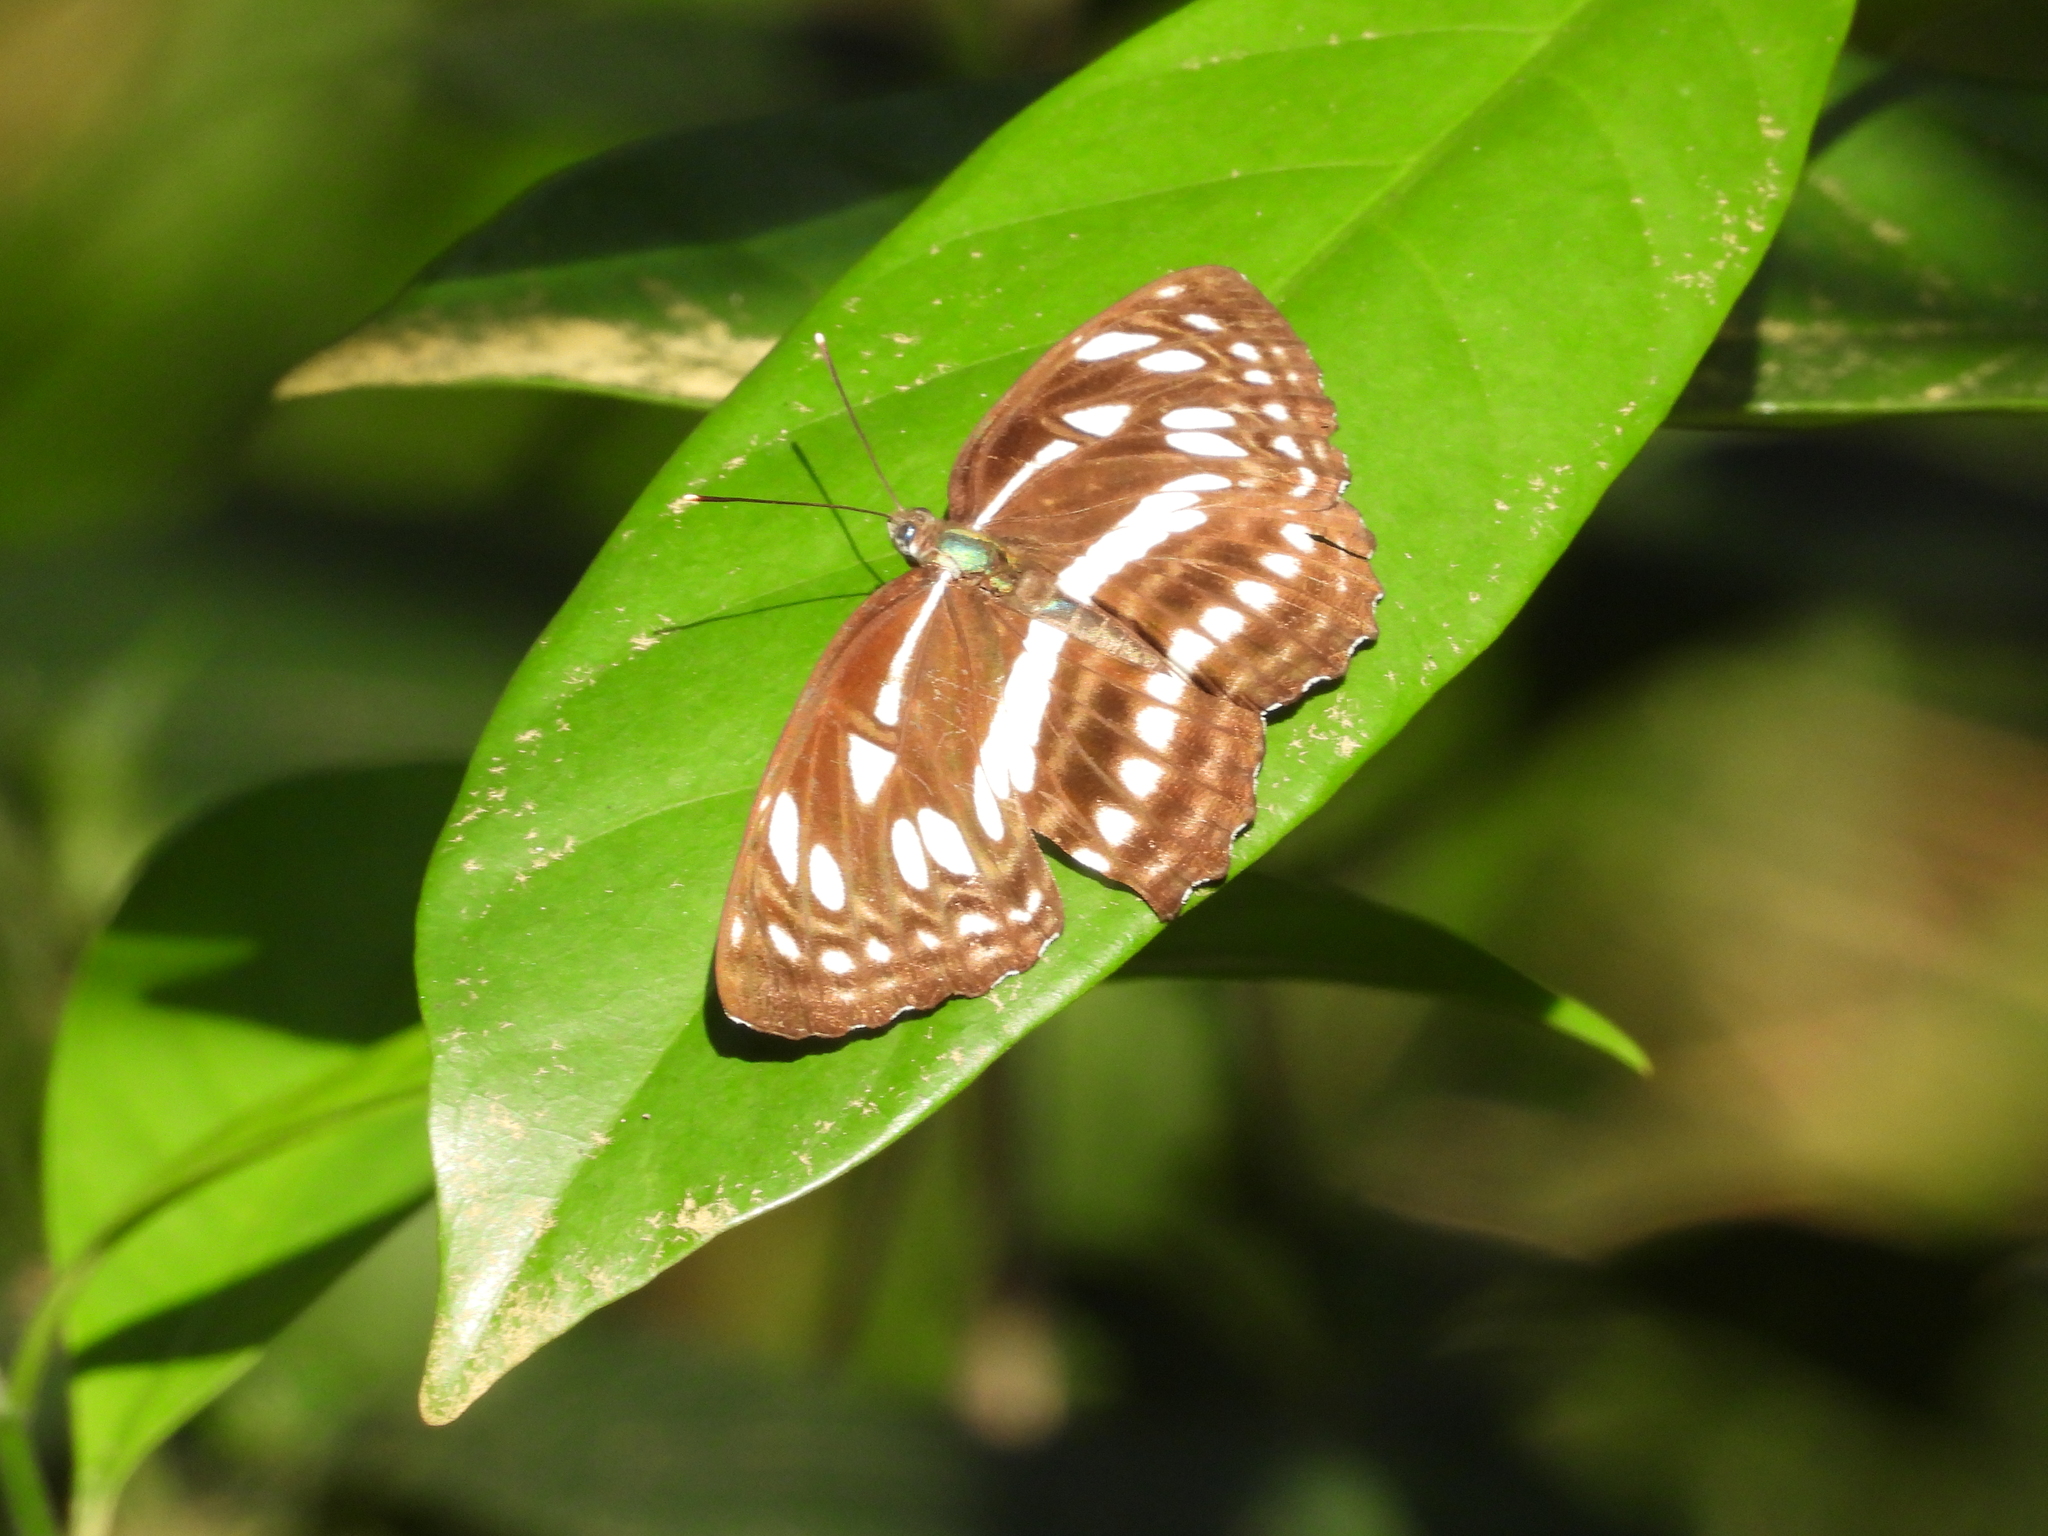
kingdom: Animalia
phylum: Arthropoda
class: Insecta
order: Lepidoptera
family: Nymphalidae
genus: Phaedyma
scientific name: Phaedyma columella
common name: Short banded sailer
